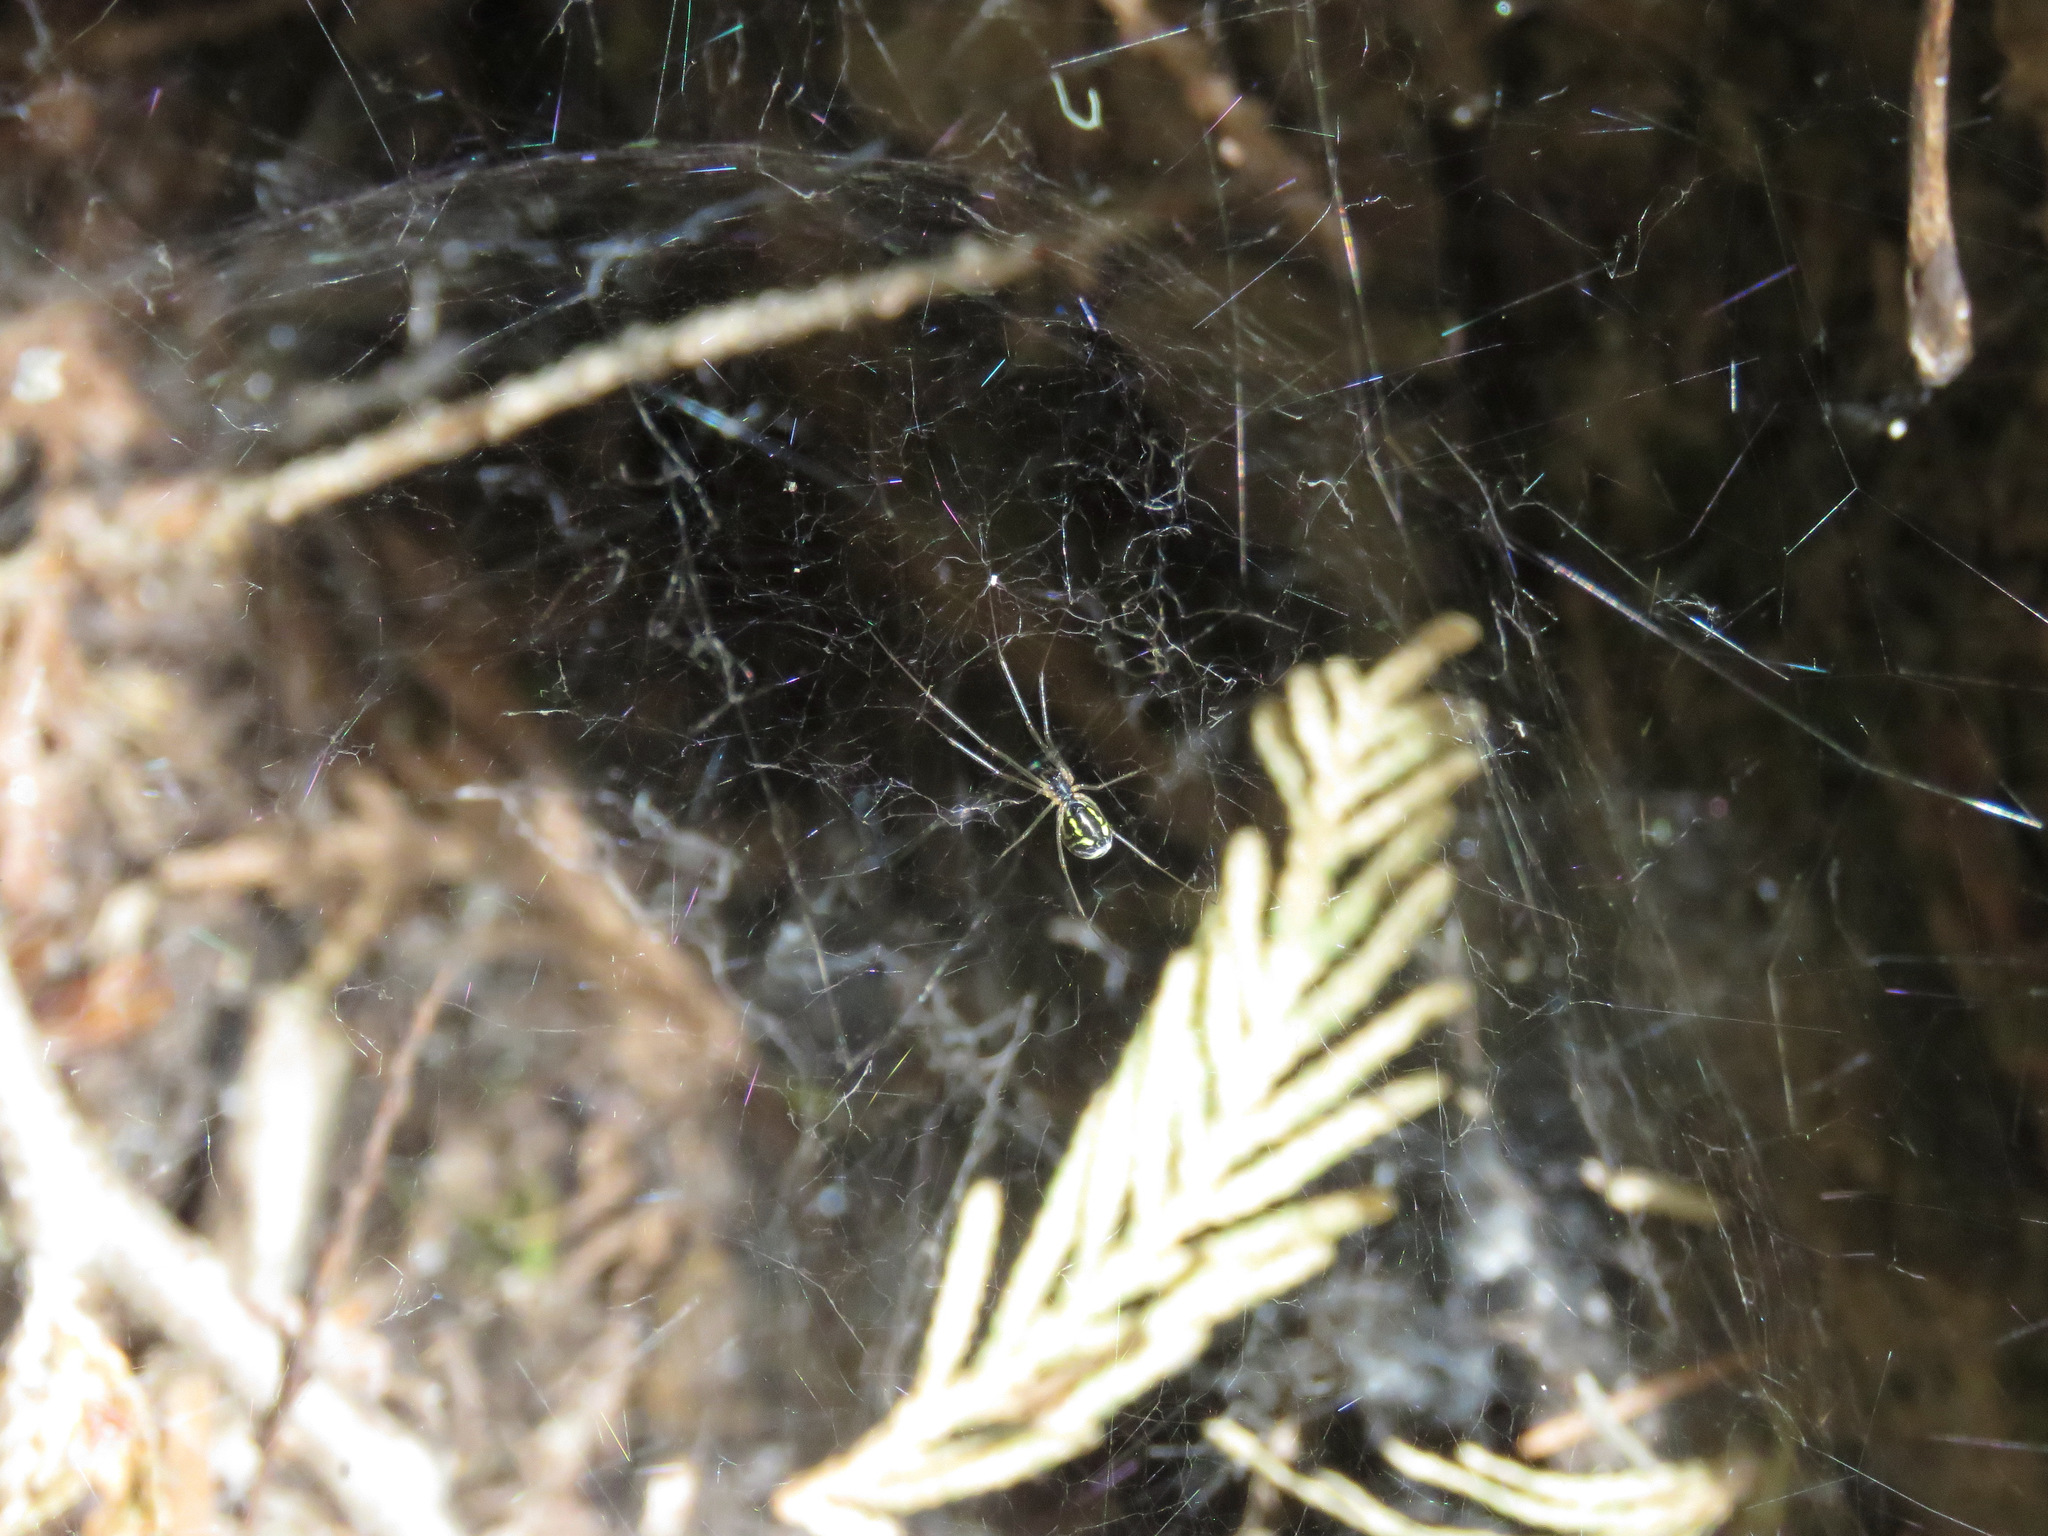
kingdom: Animalia
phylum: Arthropoda
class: Arachnida
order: Araneae
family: Linyphiidae
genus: Neriene
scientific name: Neriene radiata
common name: Filmy dome spider
